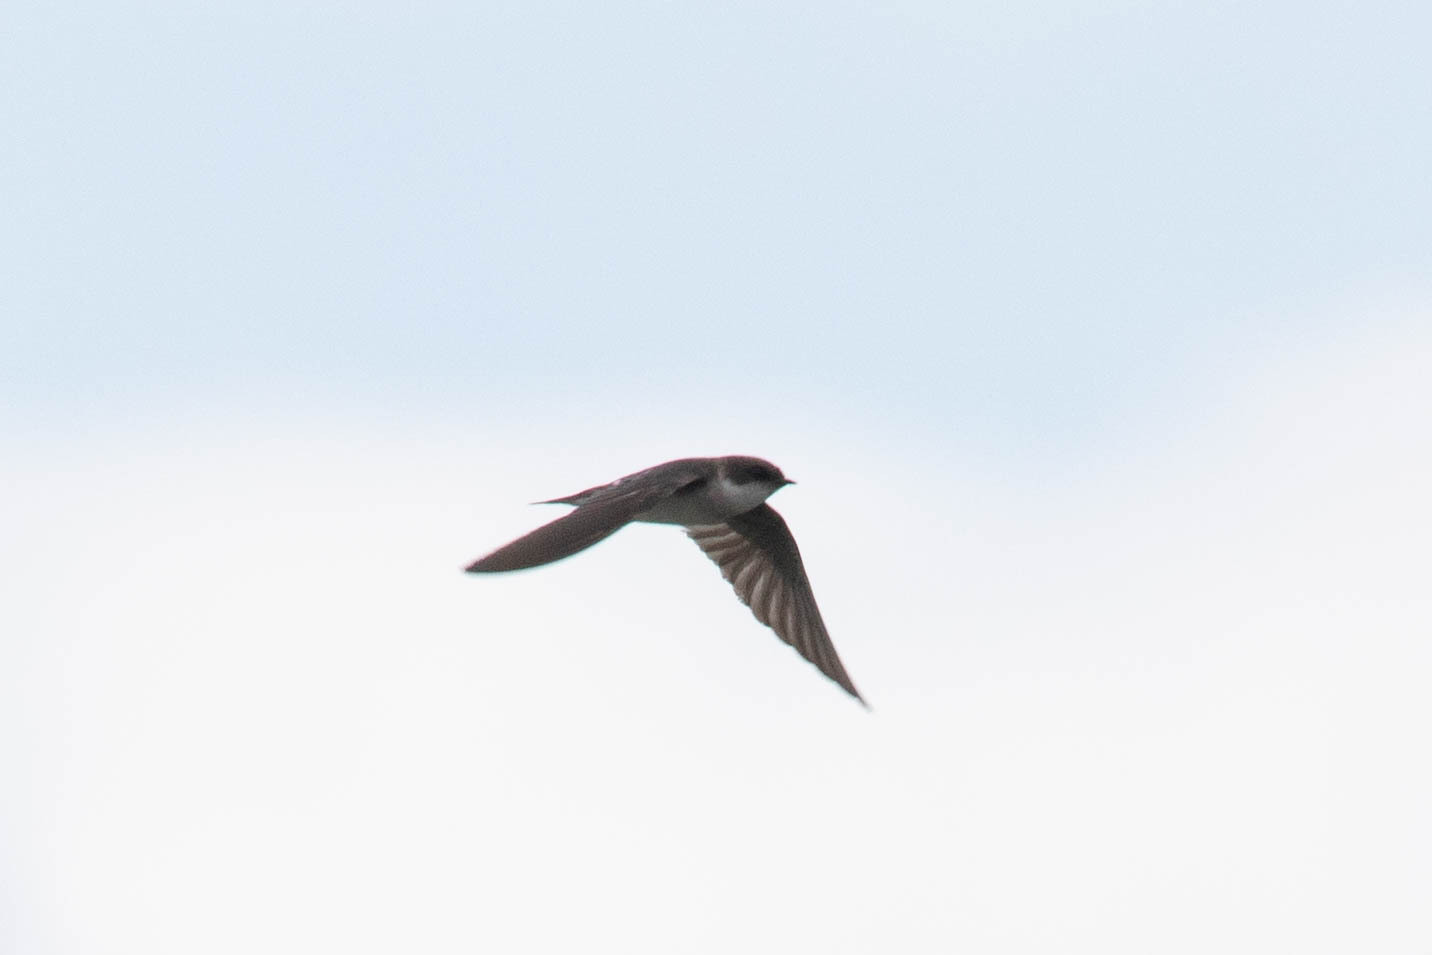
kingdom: Animalia
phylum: Chordata
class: Aves
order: Passeriformes
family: Hirundinidae
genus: Tachycineta
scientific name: Tachycineta bicolor
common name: Tree swallow
